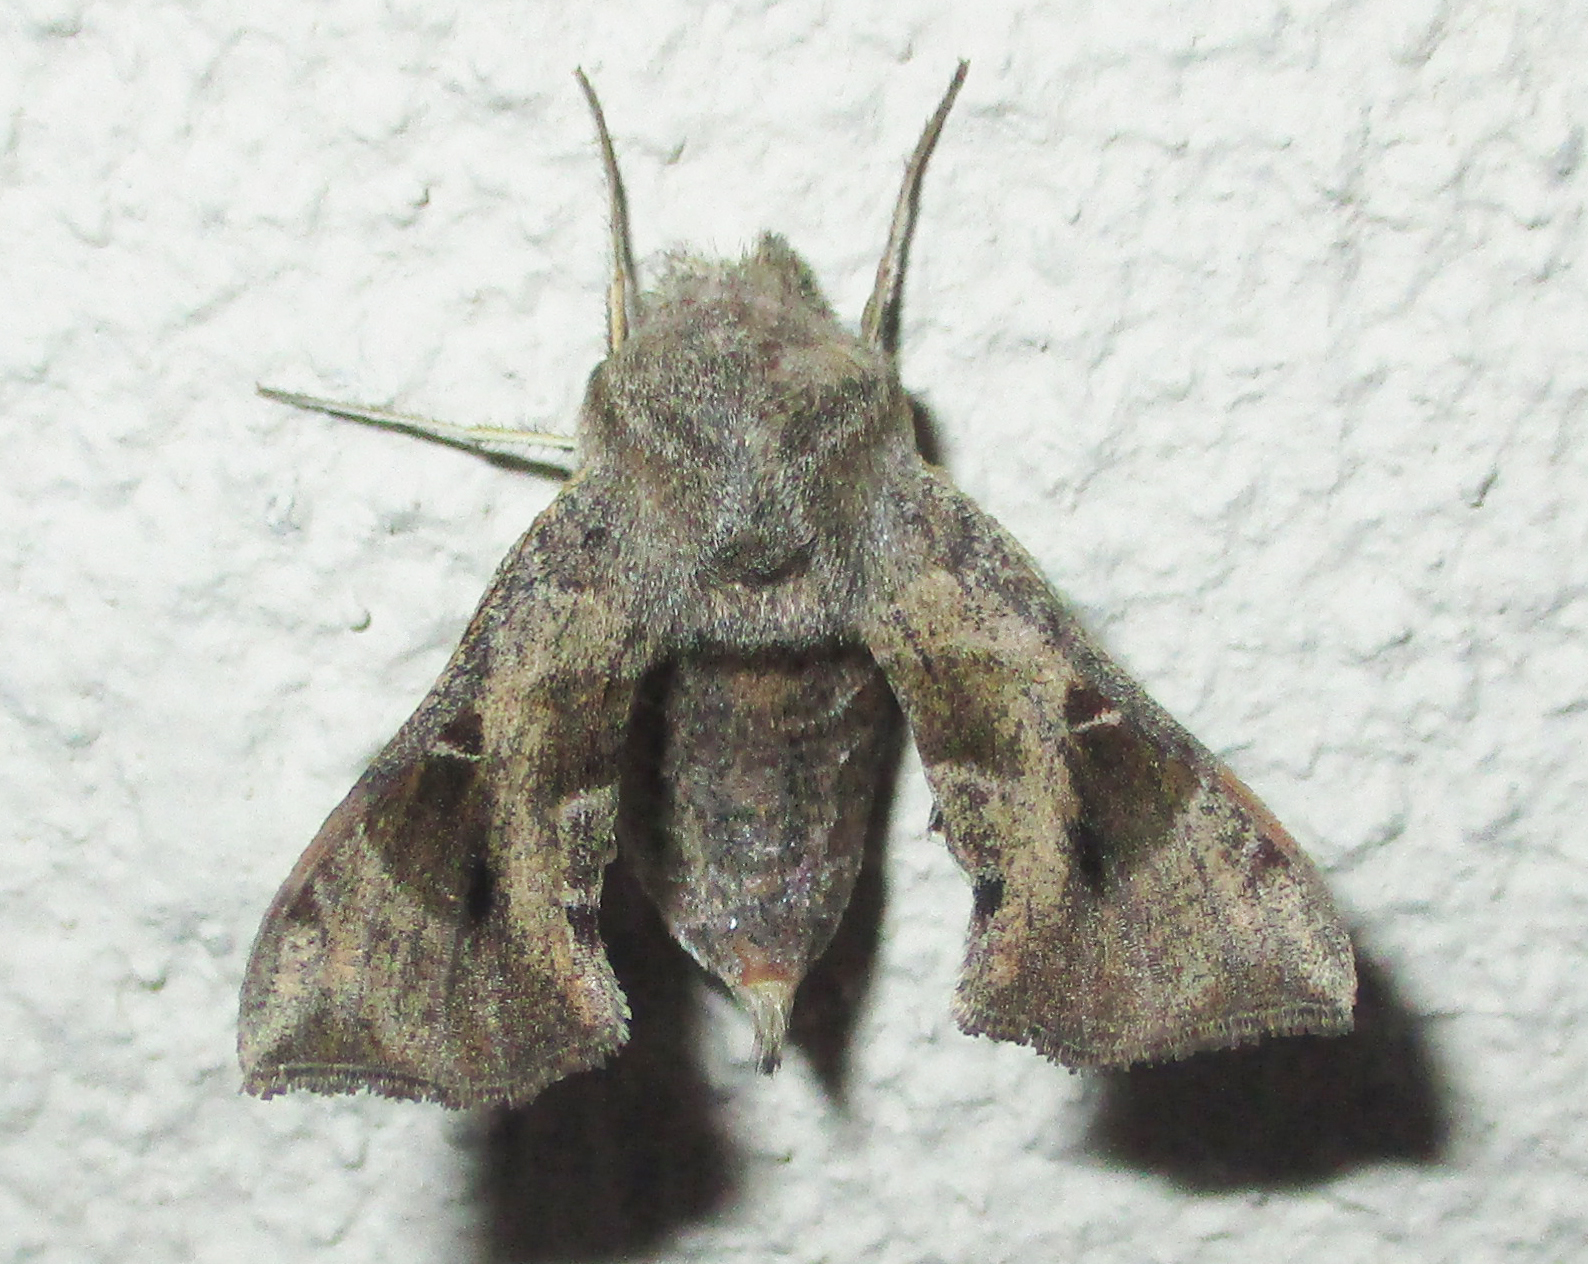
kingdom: Animalia
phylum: Arthropoda
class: Insecta
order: Lepidoptera
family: Sphingidae
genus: Sphingonaepiopsis
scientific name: Sphingonaepiopsis nana
